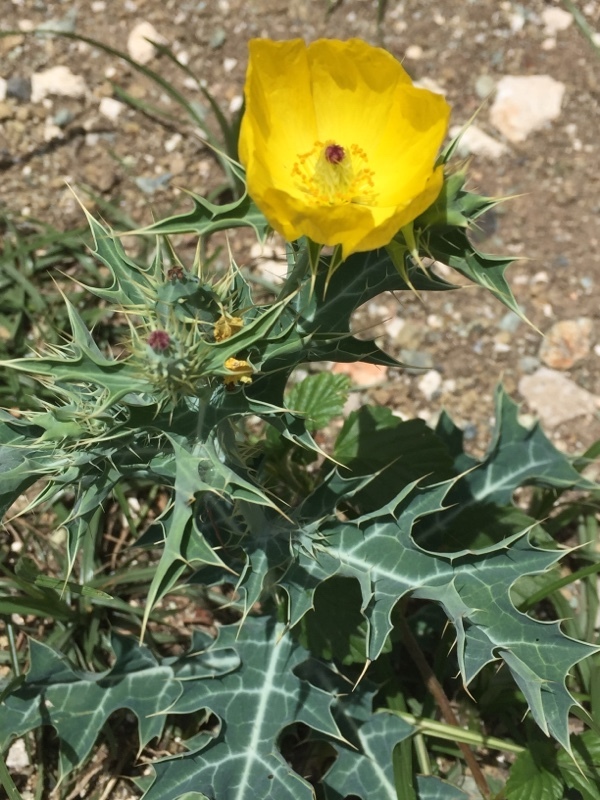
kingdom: Plantae
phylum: Tracheophyta
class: Magnoliopsida
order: Ranunculales
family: Papaveraceae
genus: Argemone
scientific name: Argemone mexicana
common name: Mexican poppy
